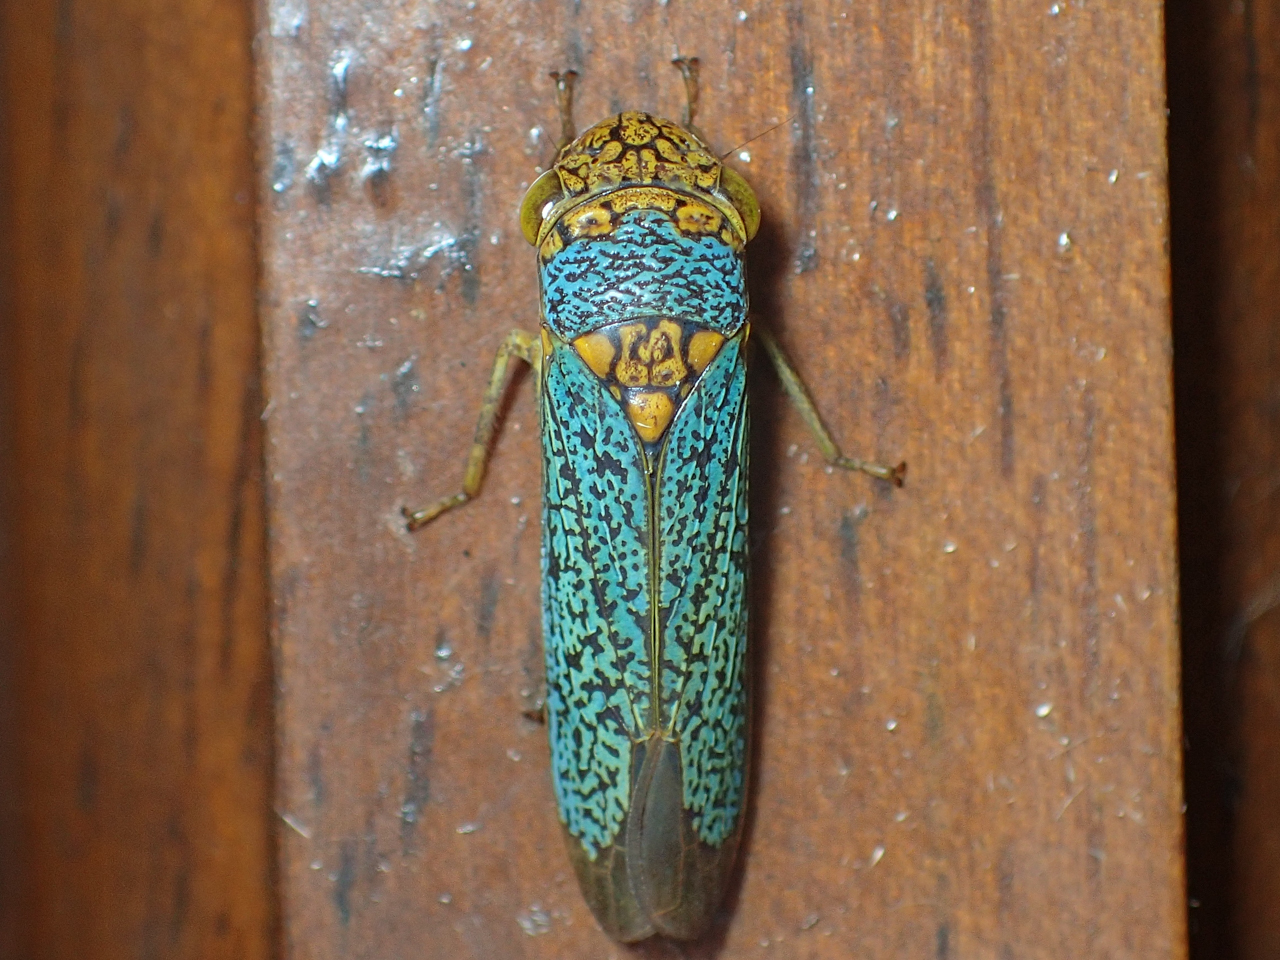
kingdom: Animalia
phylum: Arthropoda
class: Insecta
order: Hemiptera
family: Cicadellidae
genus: Oncometopia
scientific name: Oncometopia orbona
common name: Broad-headed sharpshooter
